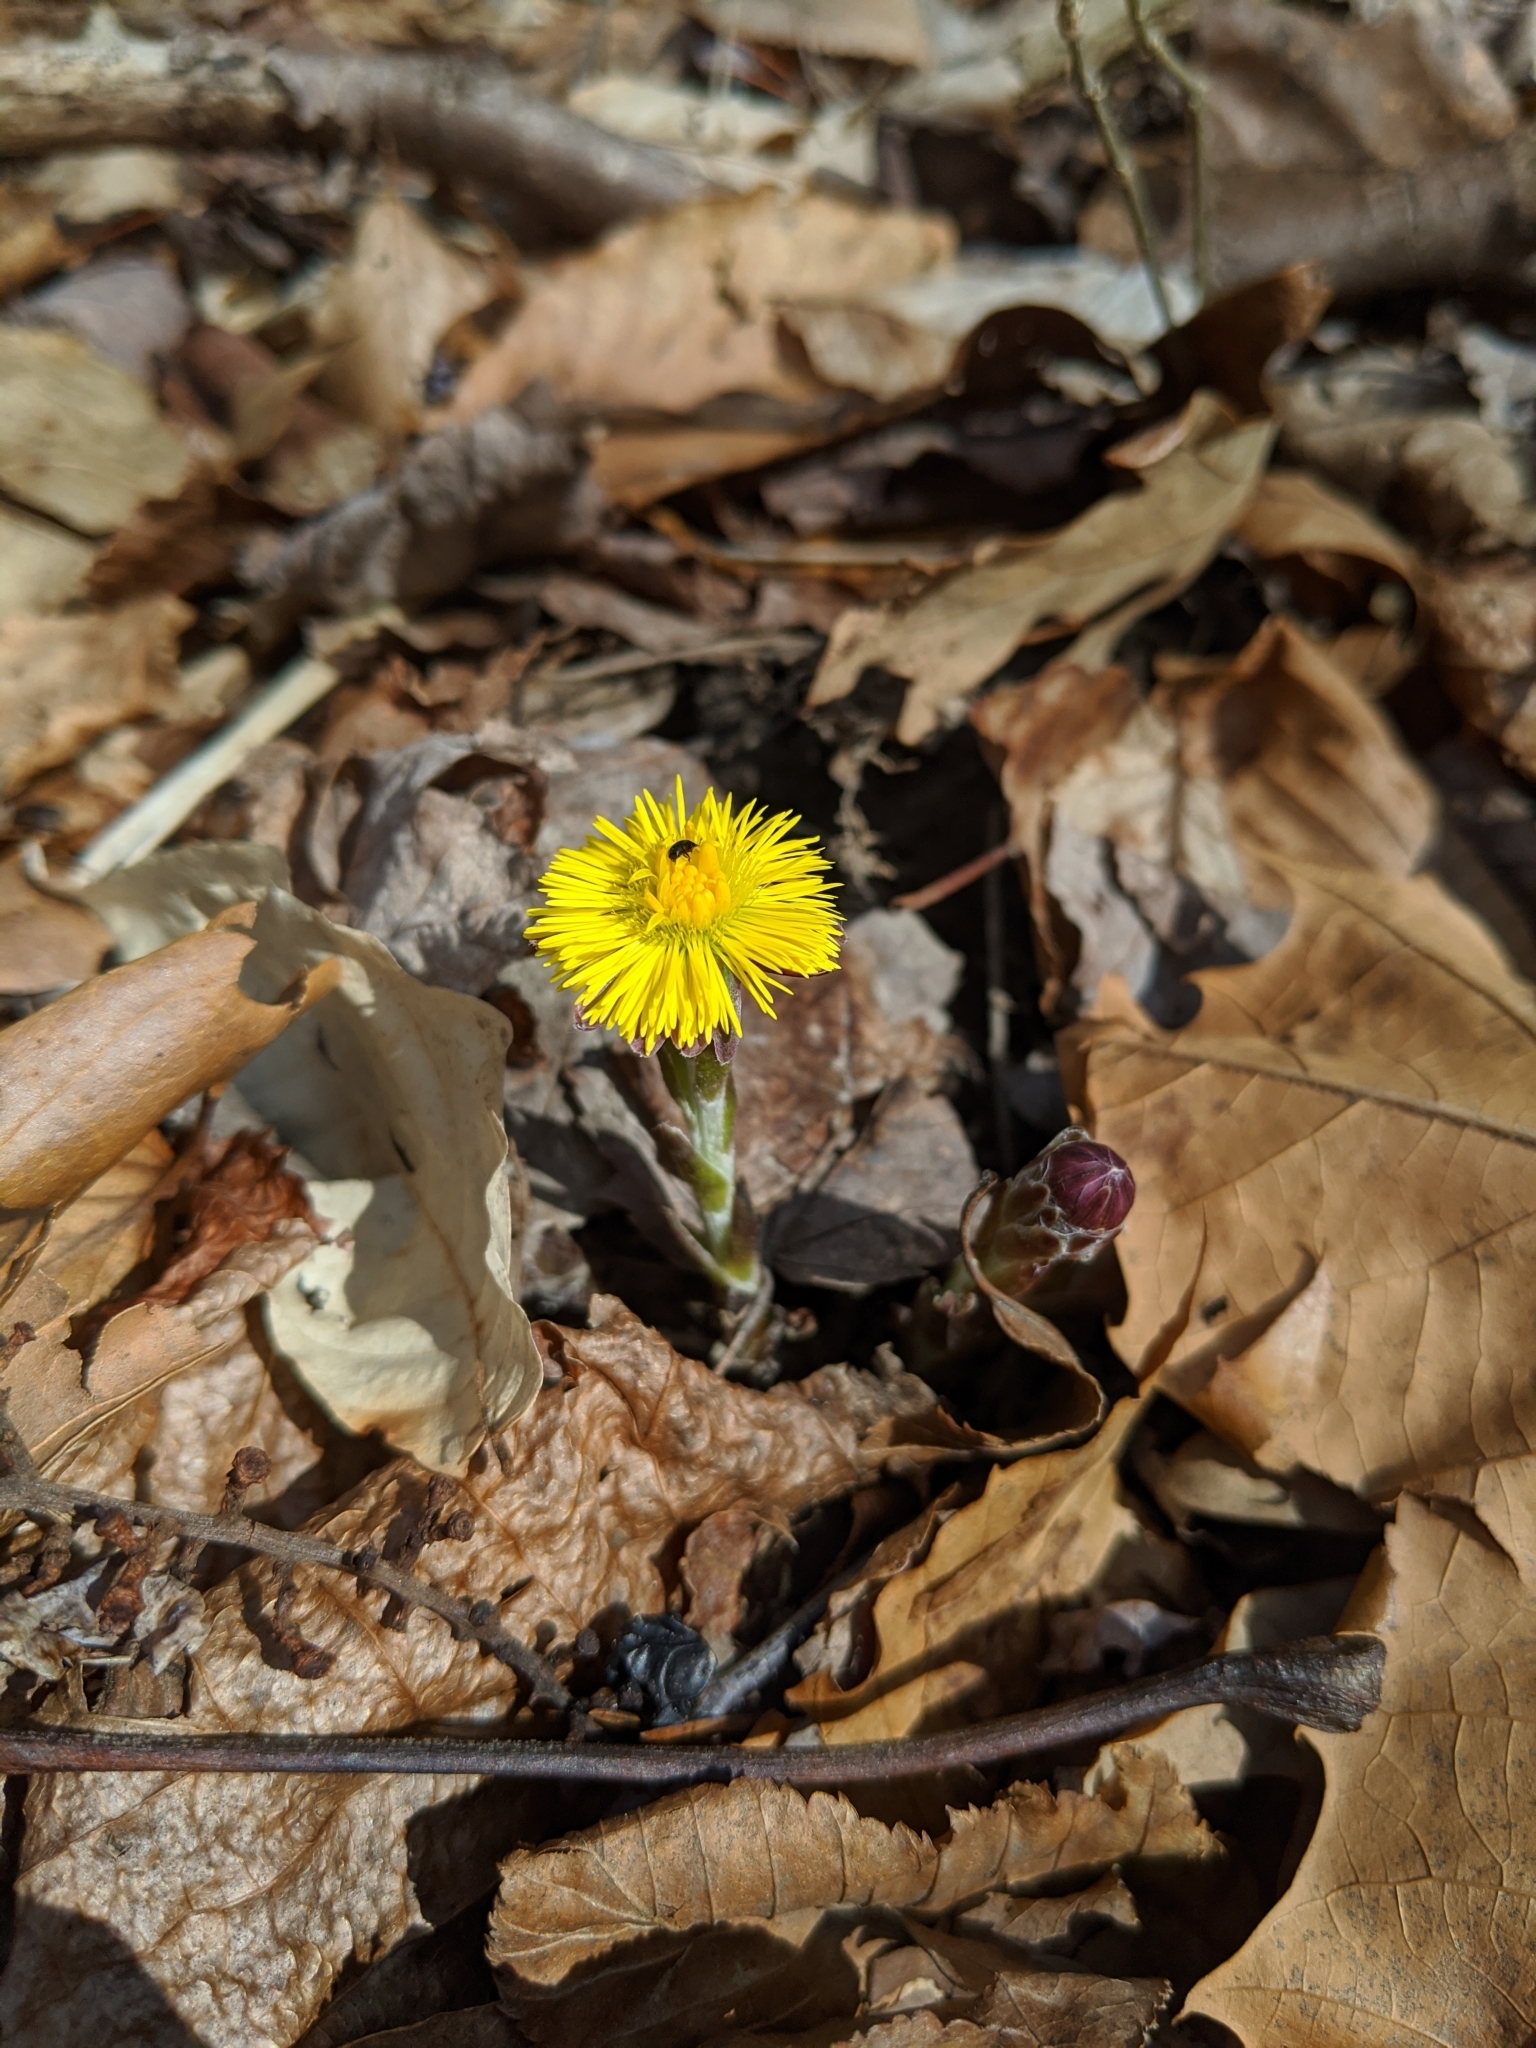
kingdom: Plantae
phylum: Tracheophyta
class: Magnoliopsida
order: Asterales
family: Asteraceae
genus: Tussilago
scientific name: Tussilago farfara
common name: Coltsfoot
